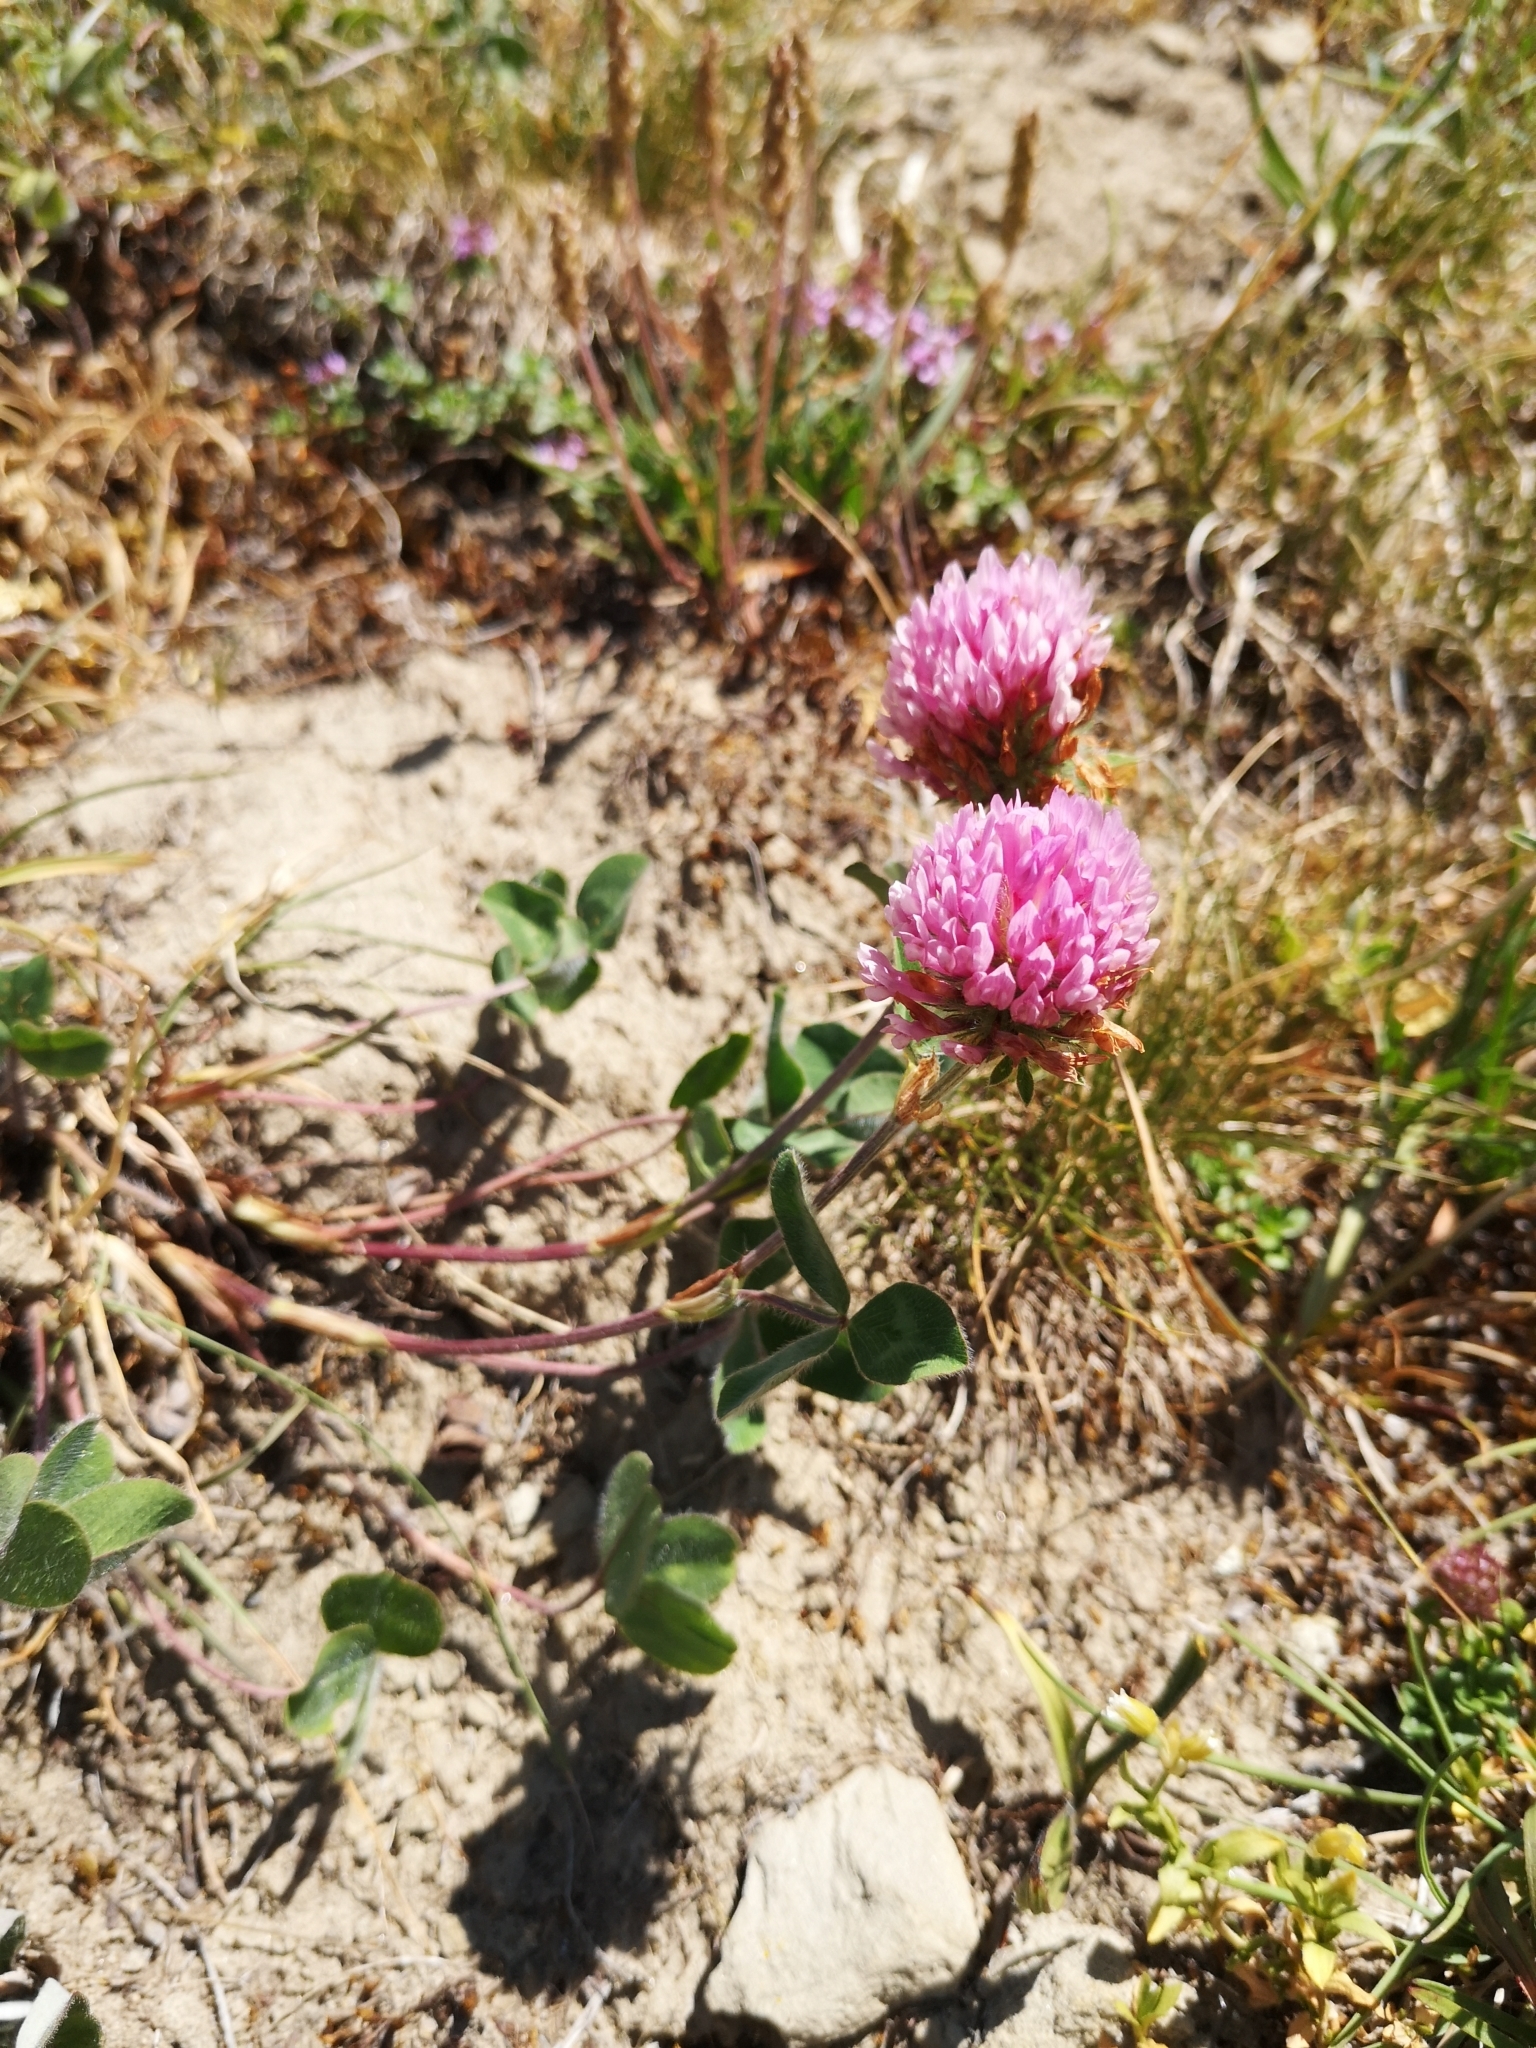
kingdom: Plantae
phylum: Tracheophyta
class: Magnoliopsida
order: Fabales
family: Fabaceae
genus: Trifolium
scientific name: Trifolium pratense
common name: Red clover
